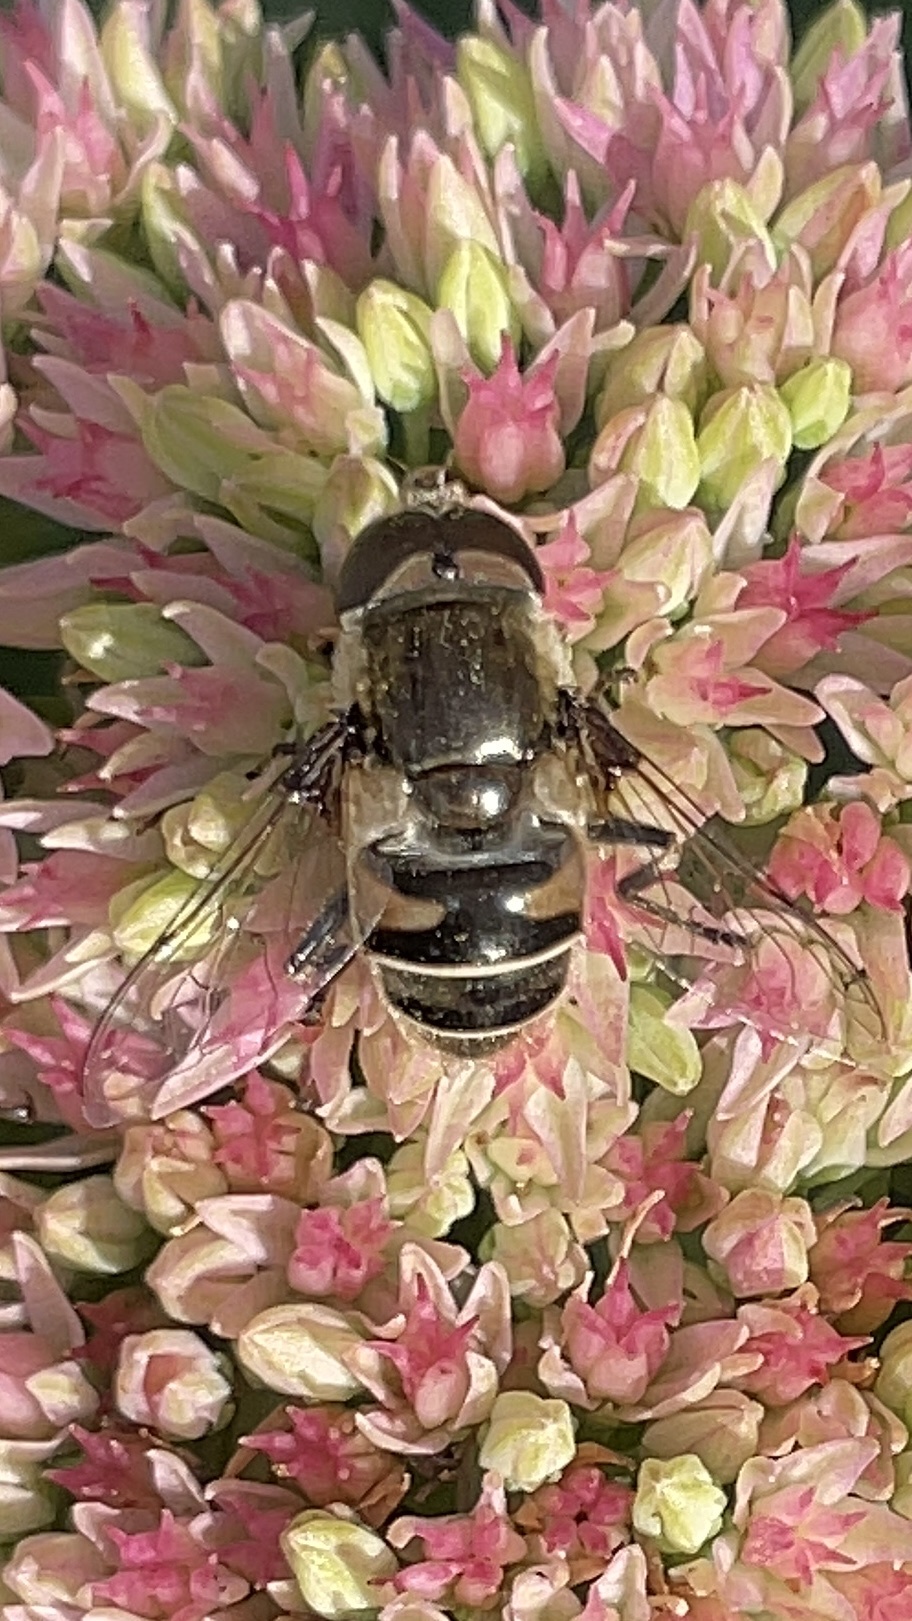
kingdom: Animalia
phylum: Arthropoda
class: Insecta
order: Diptera
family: Syrphidae
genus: Eristalis
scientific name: Eristalis dimidiata
